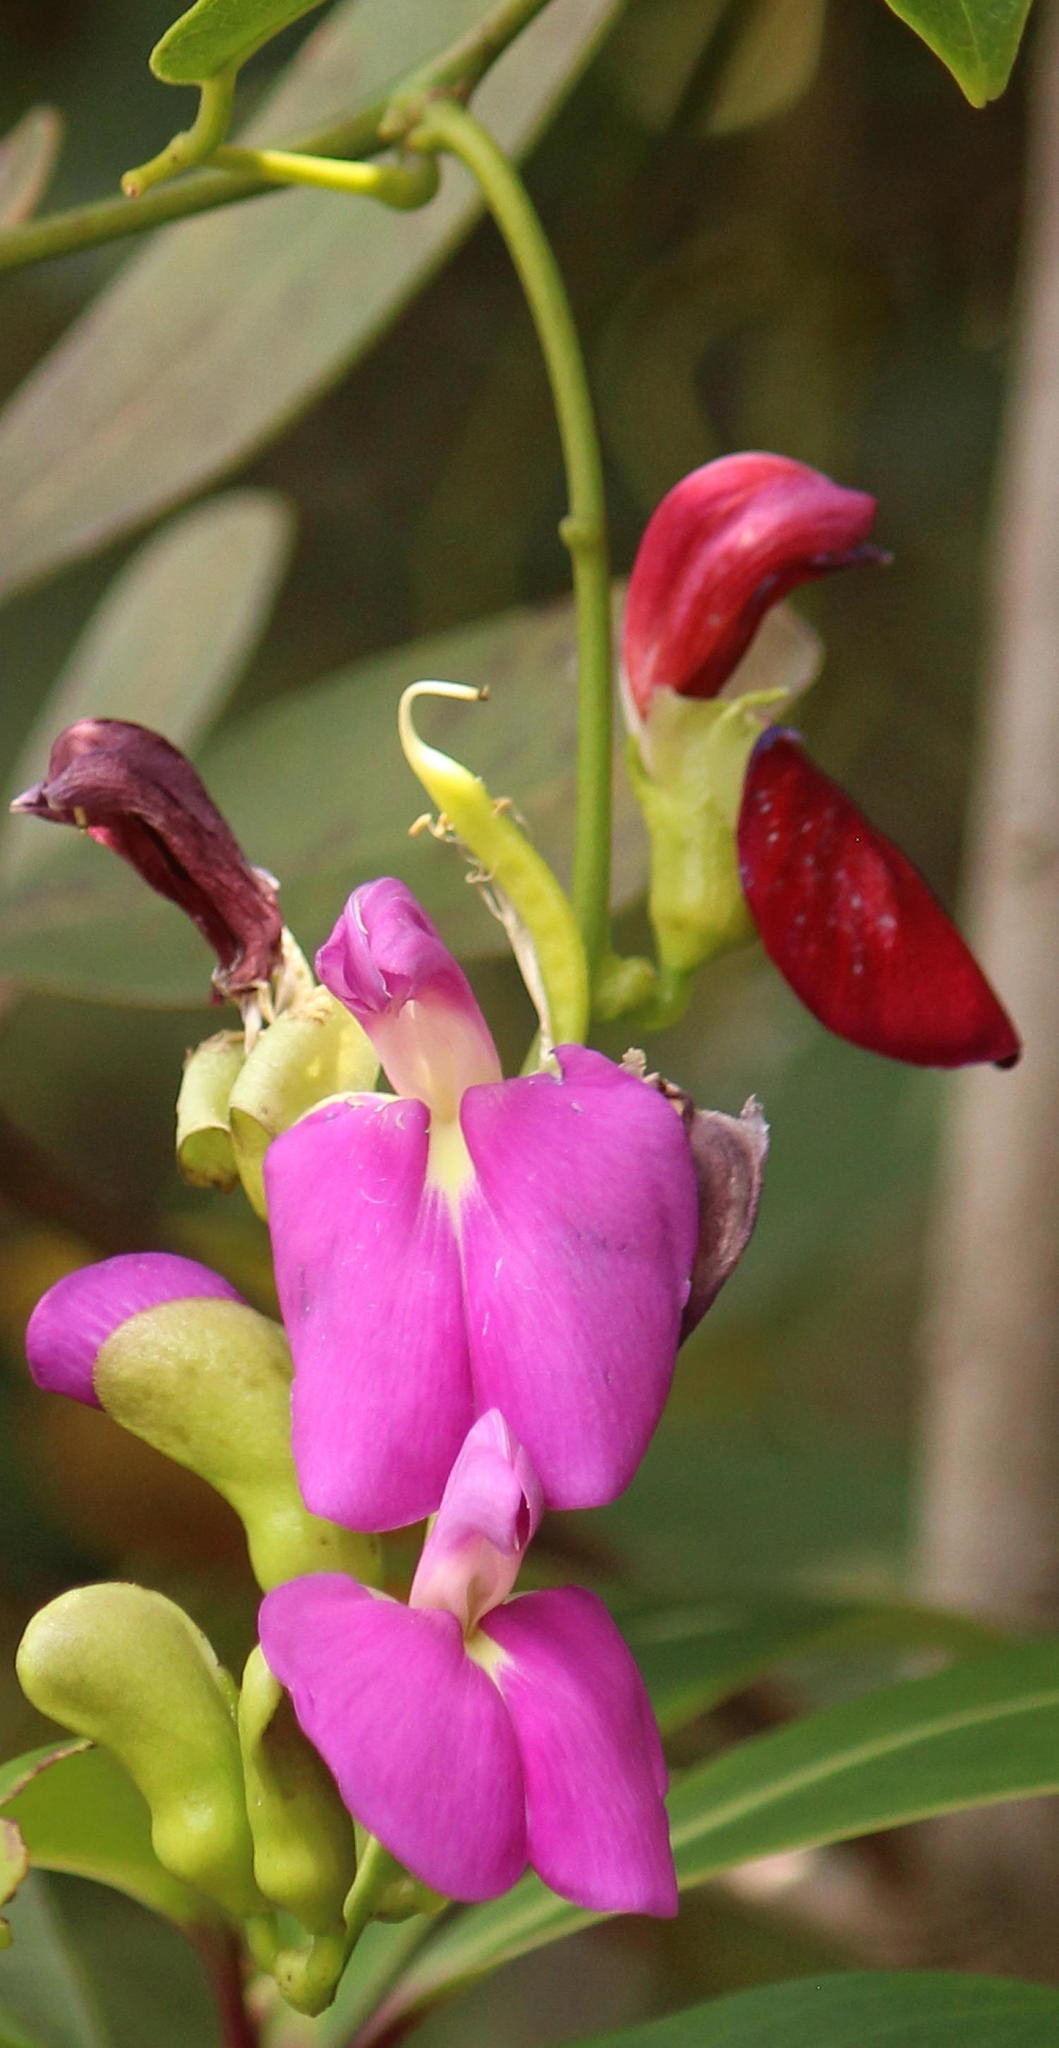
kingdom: Plantae
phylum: Tracheophyta
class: Magnoliopsida
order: Fabales
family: Fabaceae
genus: Canavalia
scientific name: Canavalia bonariensis
